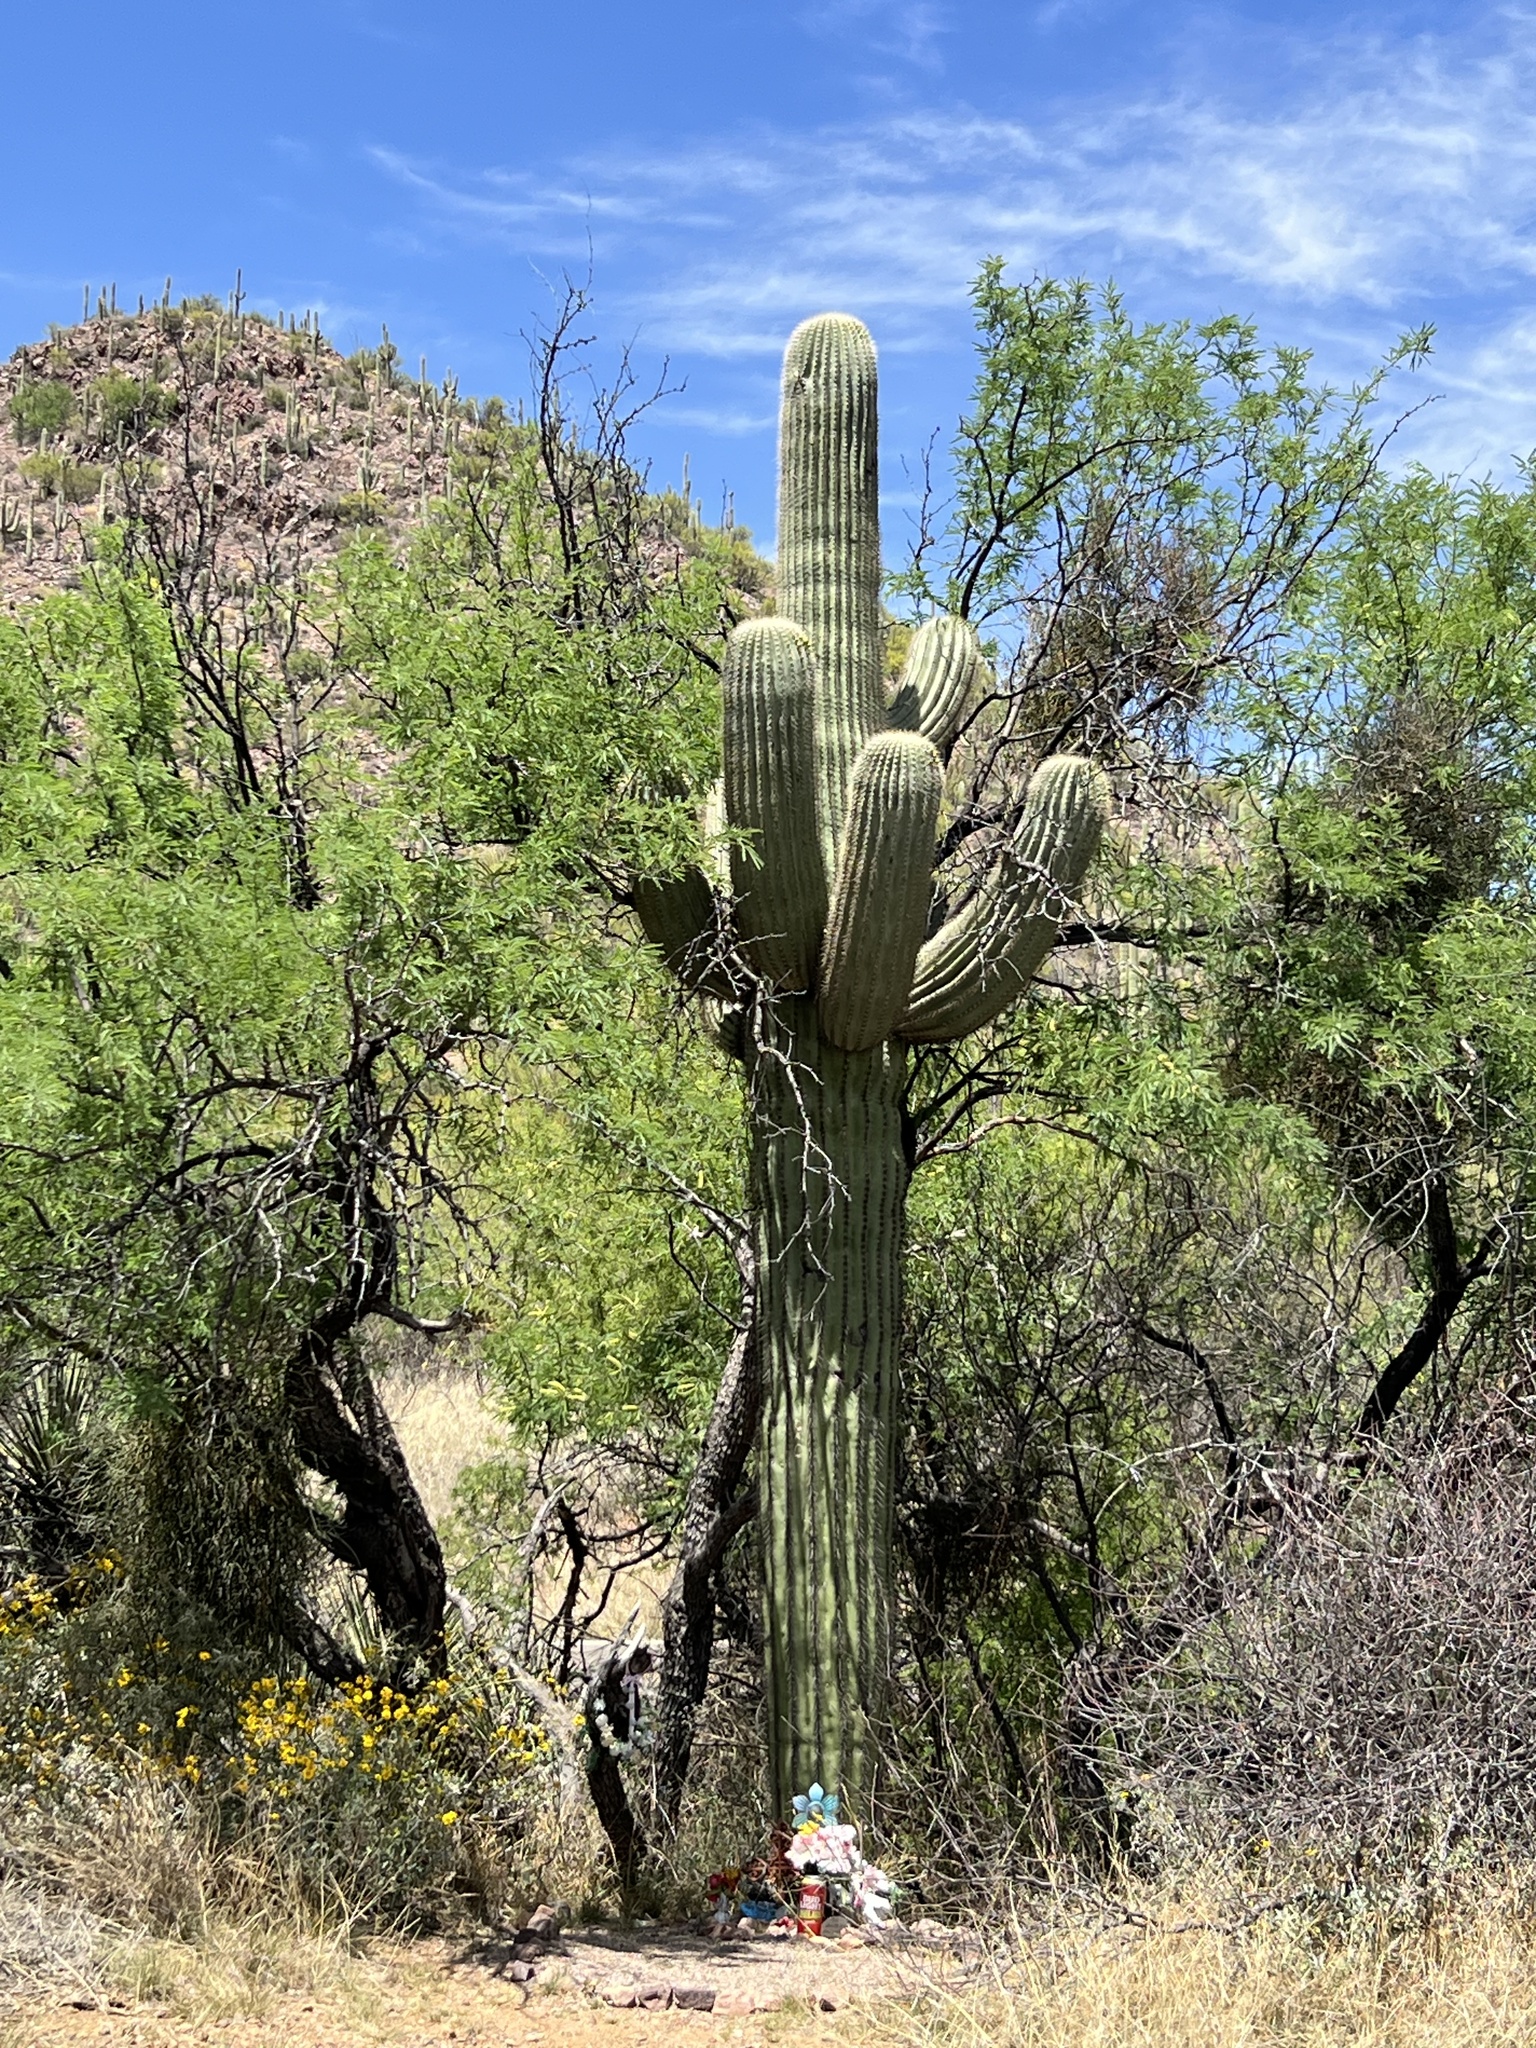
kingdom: Plantae
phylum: Tracheophyta
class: Magnoliopsida
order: Caryophyllales
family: Cactaceae
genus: Carnegiea
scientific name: Carnegiea gigantea
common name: Saguaro
